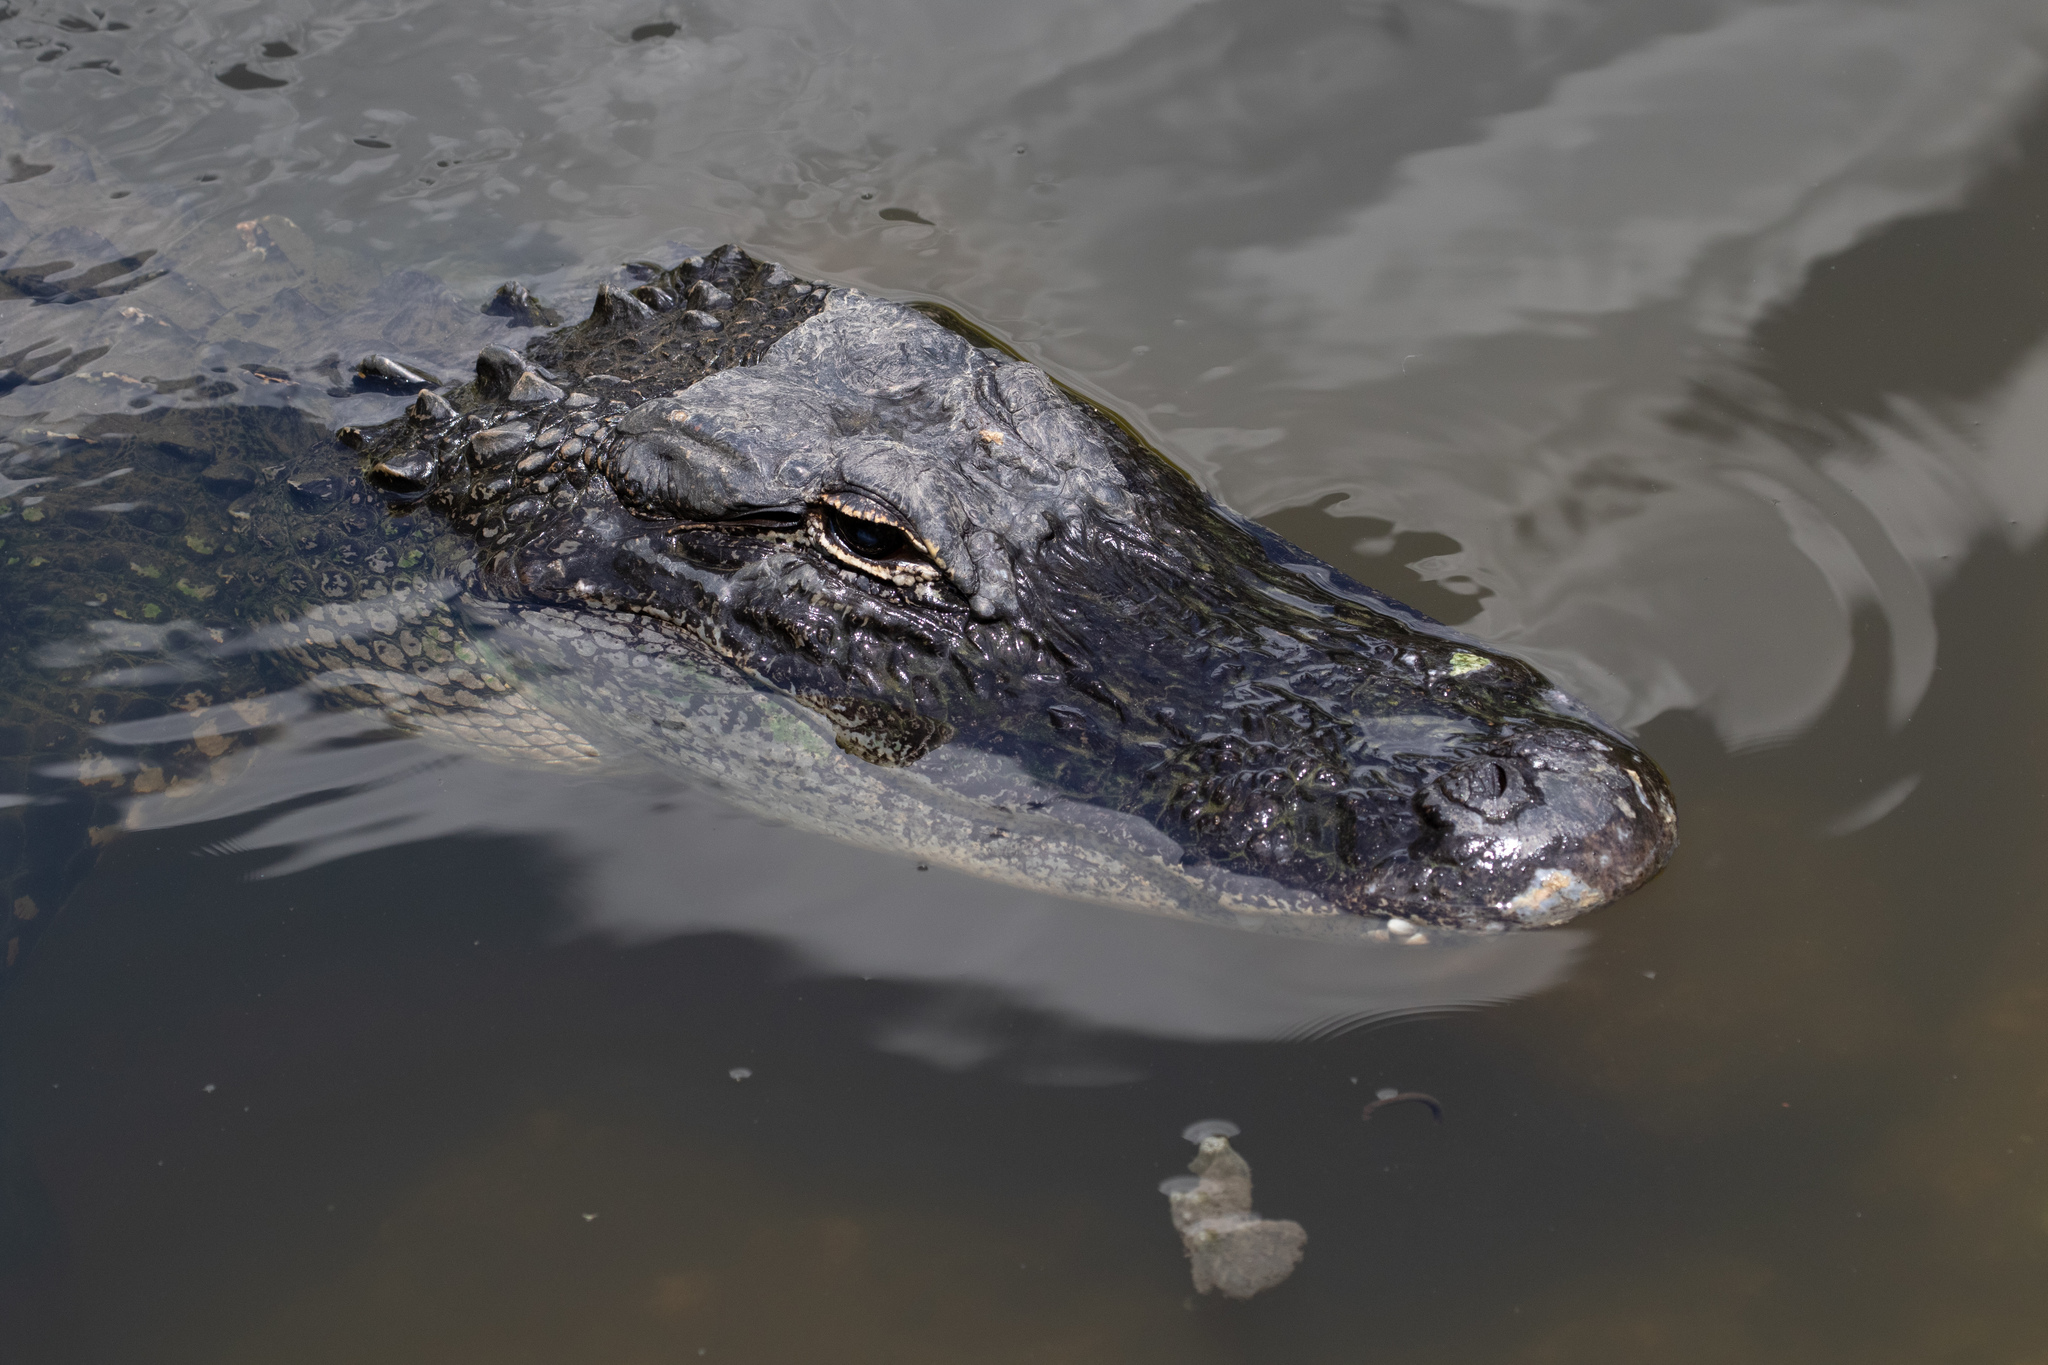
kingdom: Animalia
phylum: Chordata
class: Crocodylia
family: Alligatoridae
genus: Alligator
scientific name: Alligator mississippiensis
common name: American alligator
